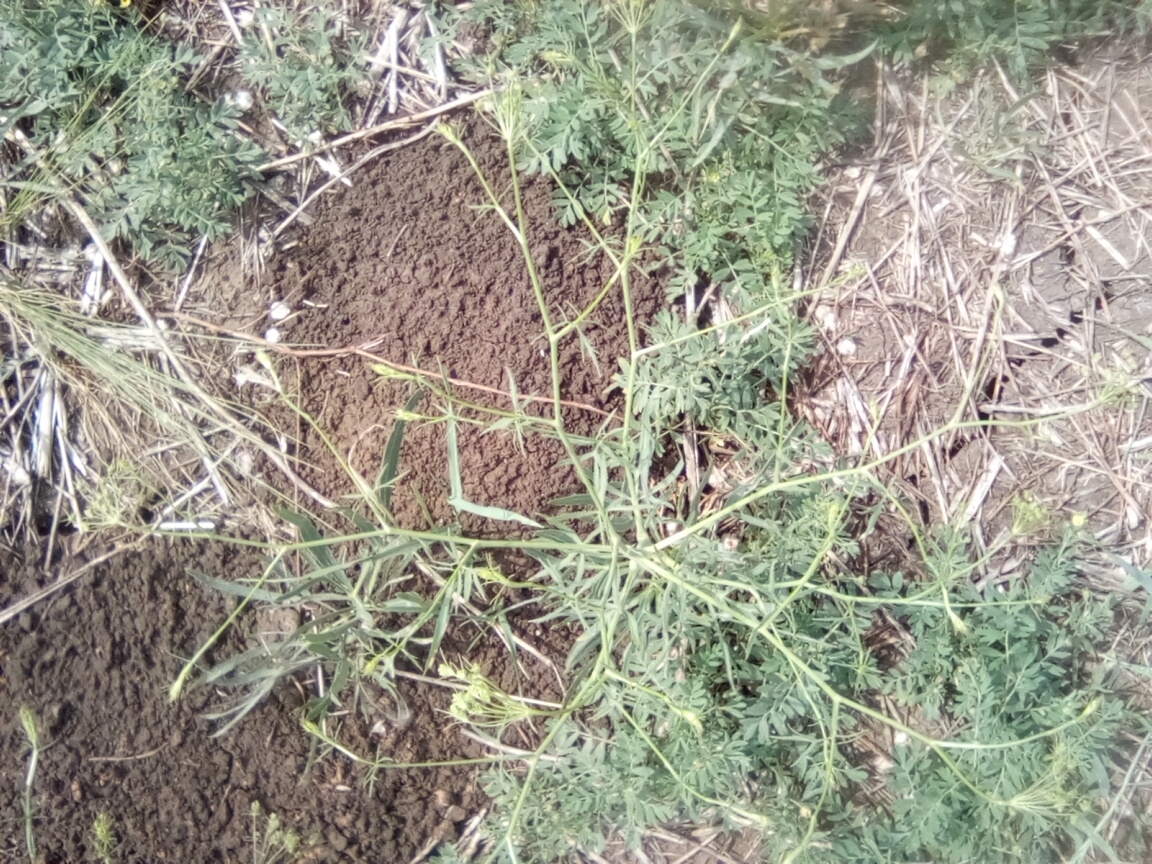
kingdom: Plantae
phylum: Tracheophyta
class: Magnoliopsida
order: Apiales
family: Apiaceae
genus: Falcaria
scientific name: Falcaria vulgaris
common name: Longleaf
